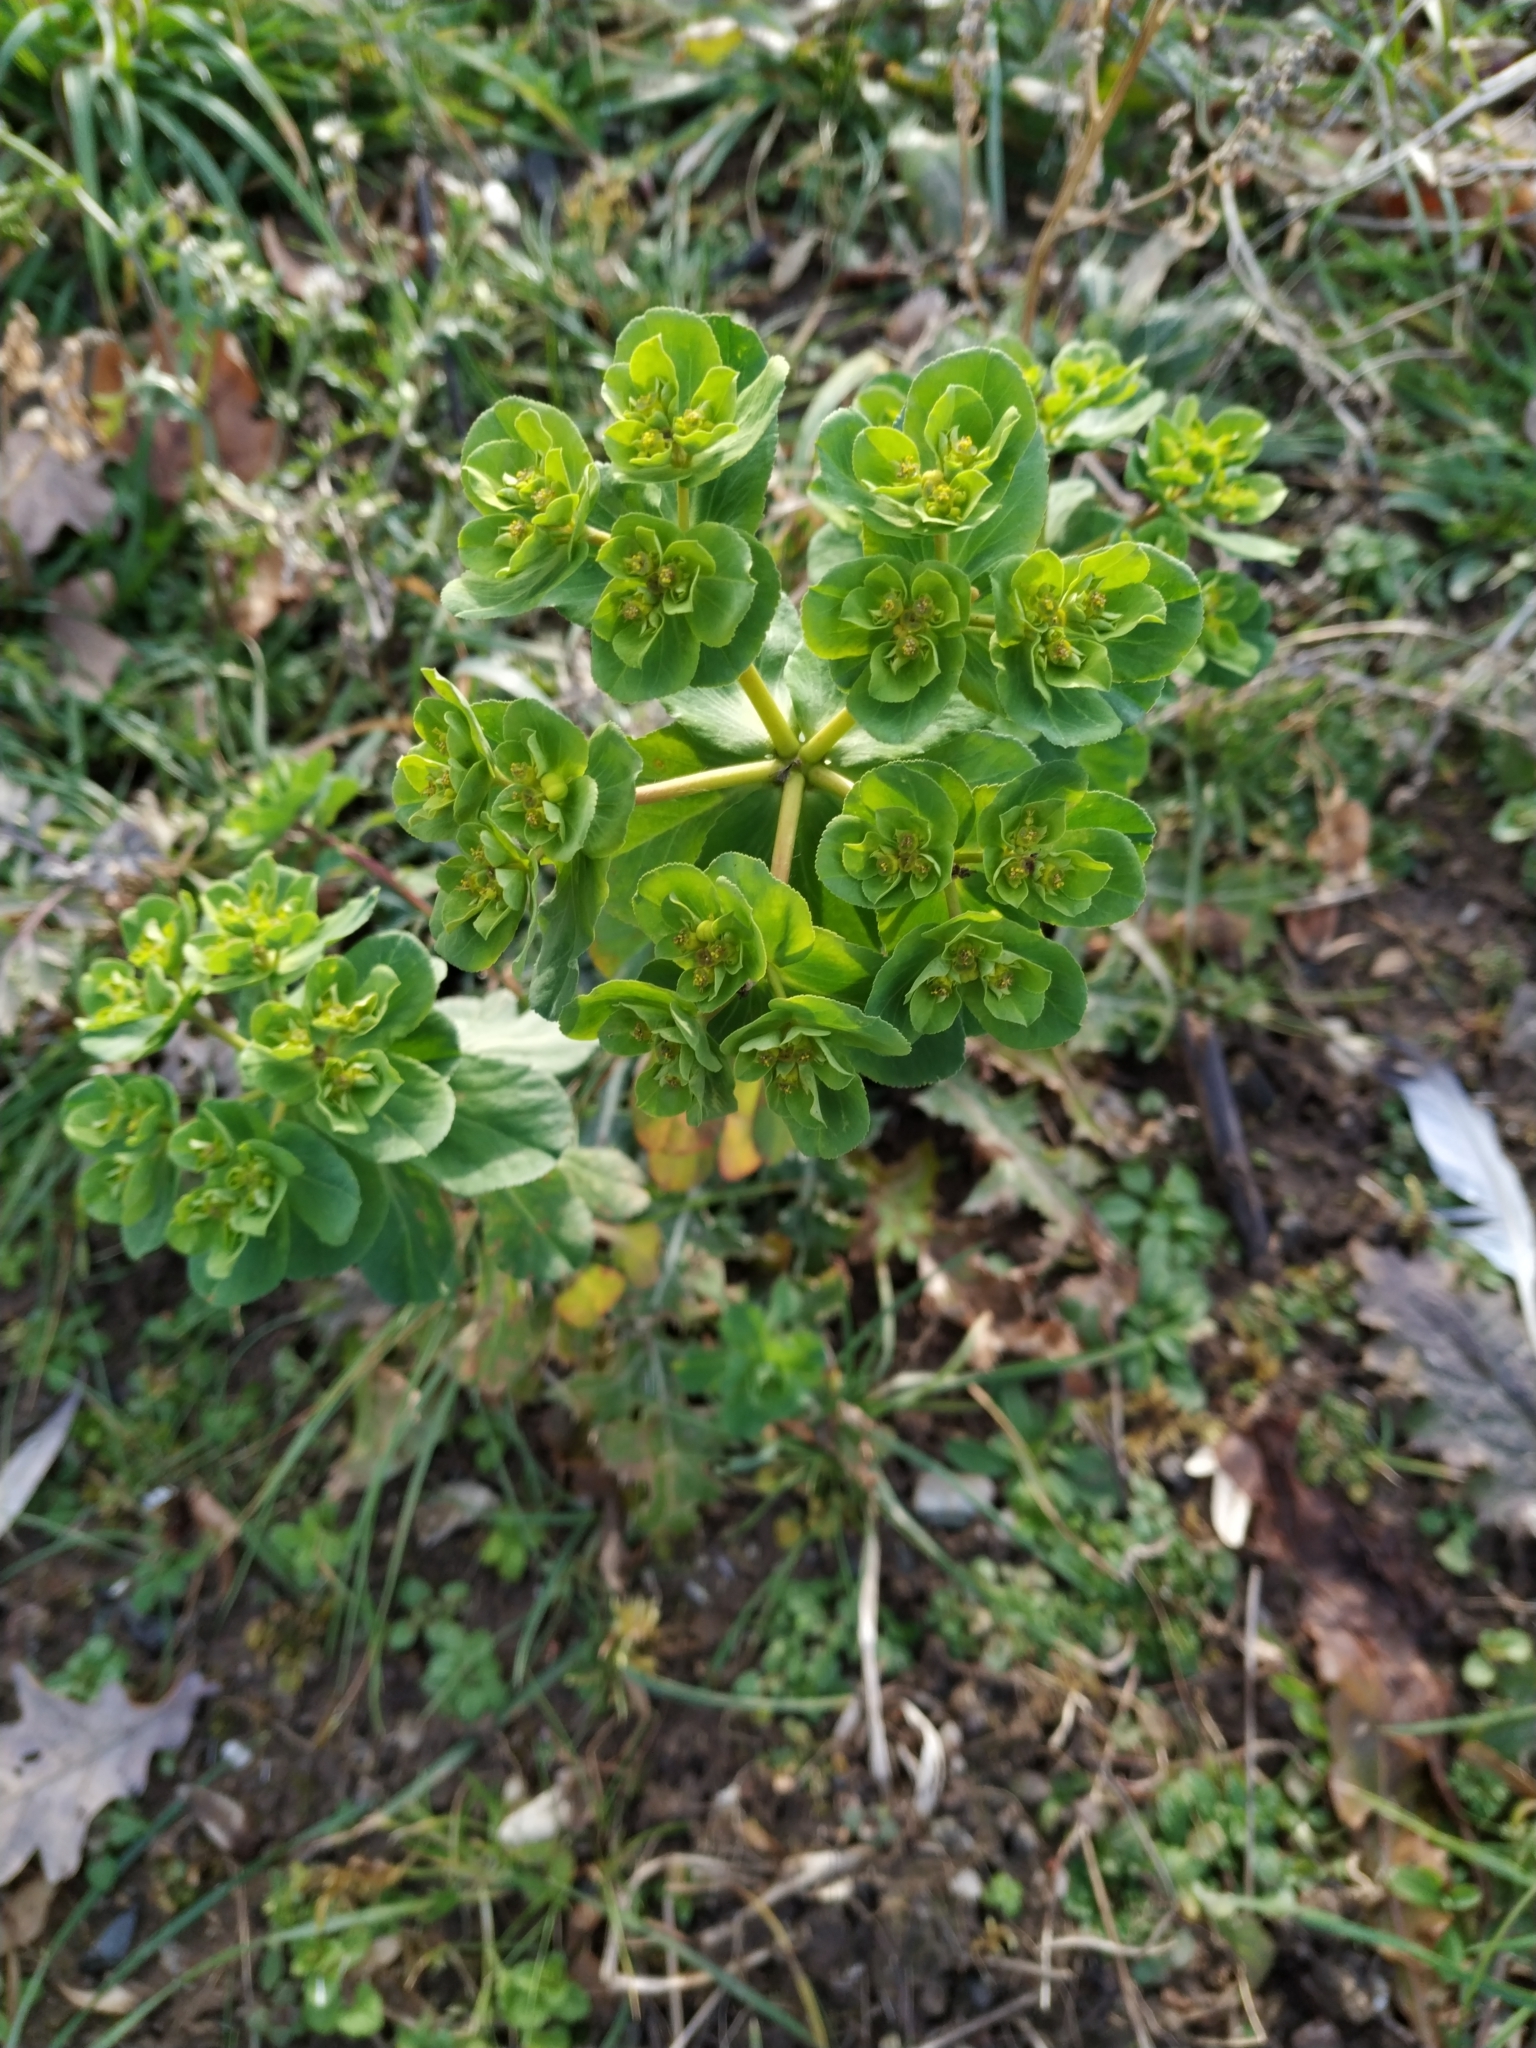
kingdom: Plantae
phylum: Tracheophyta
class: Magnoliopsida
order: Malpighiales
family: Euphorbiaceae
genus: Euphorbia
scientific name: Euphorbia helioscopia
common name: Sun spurge
